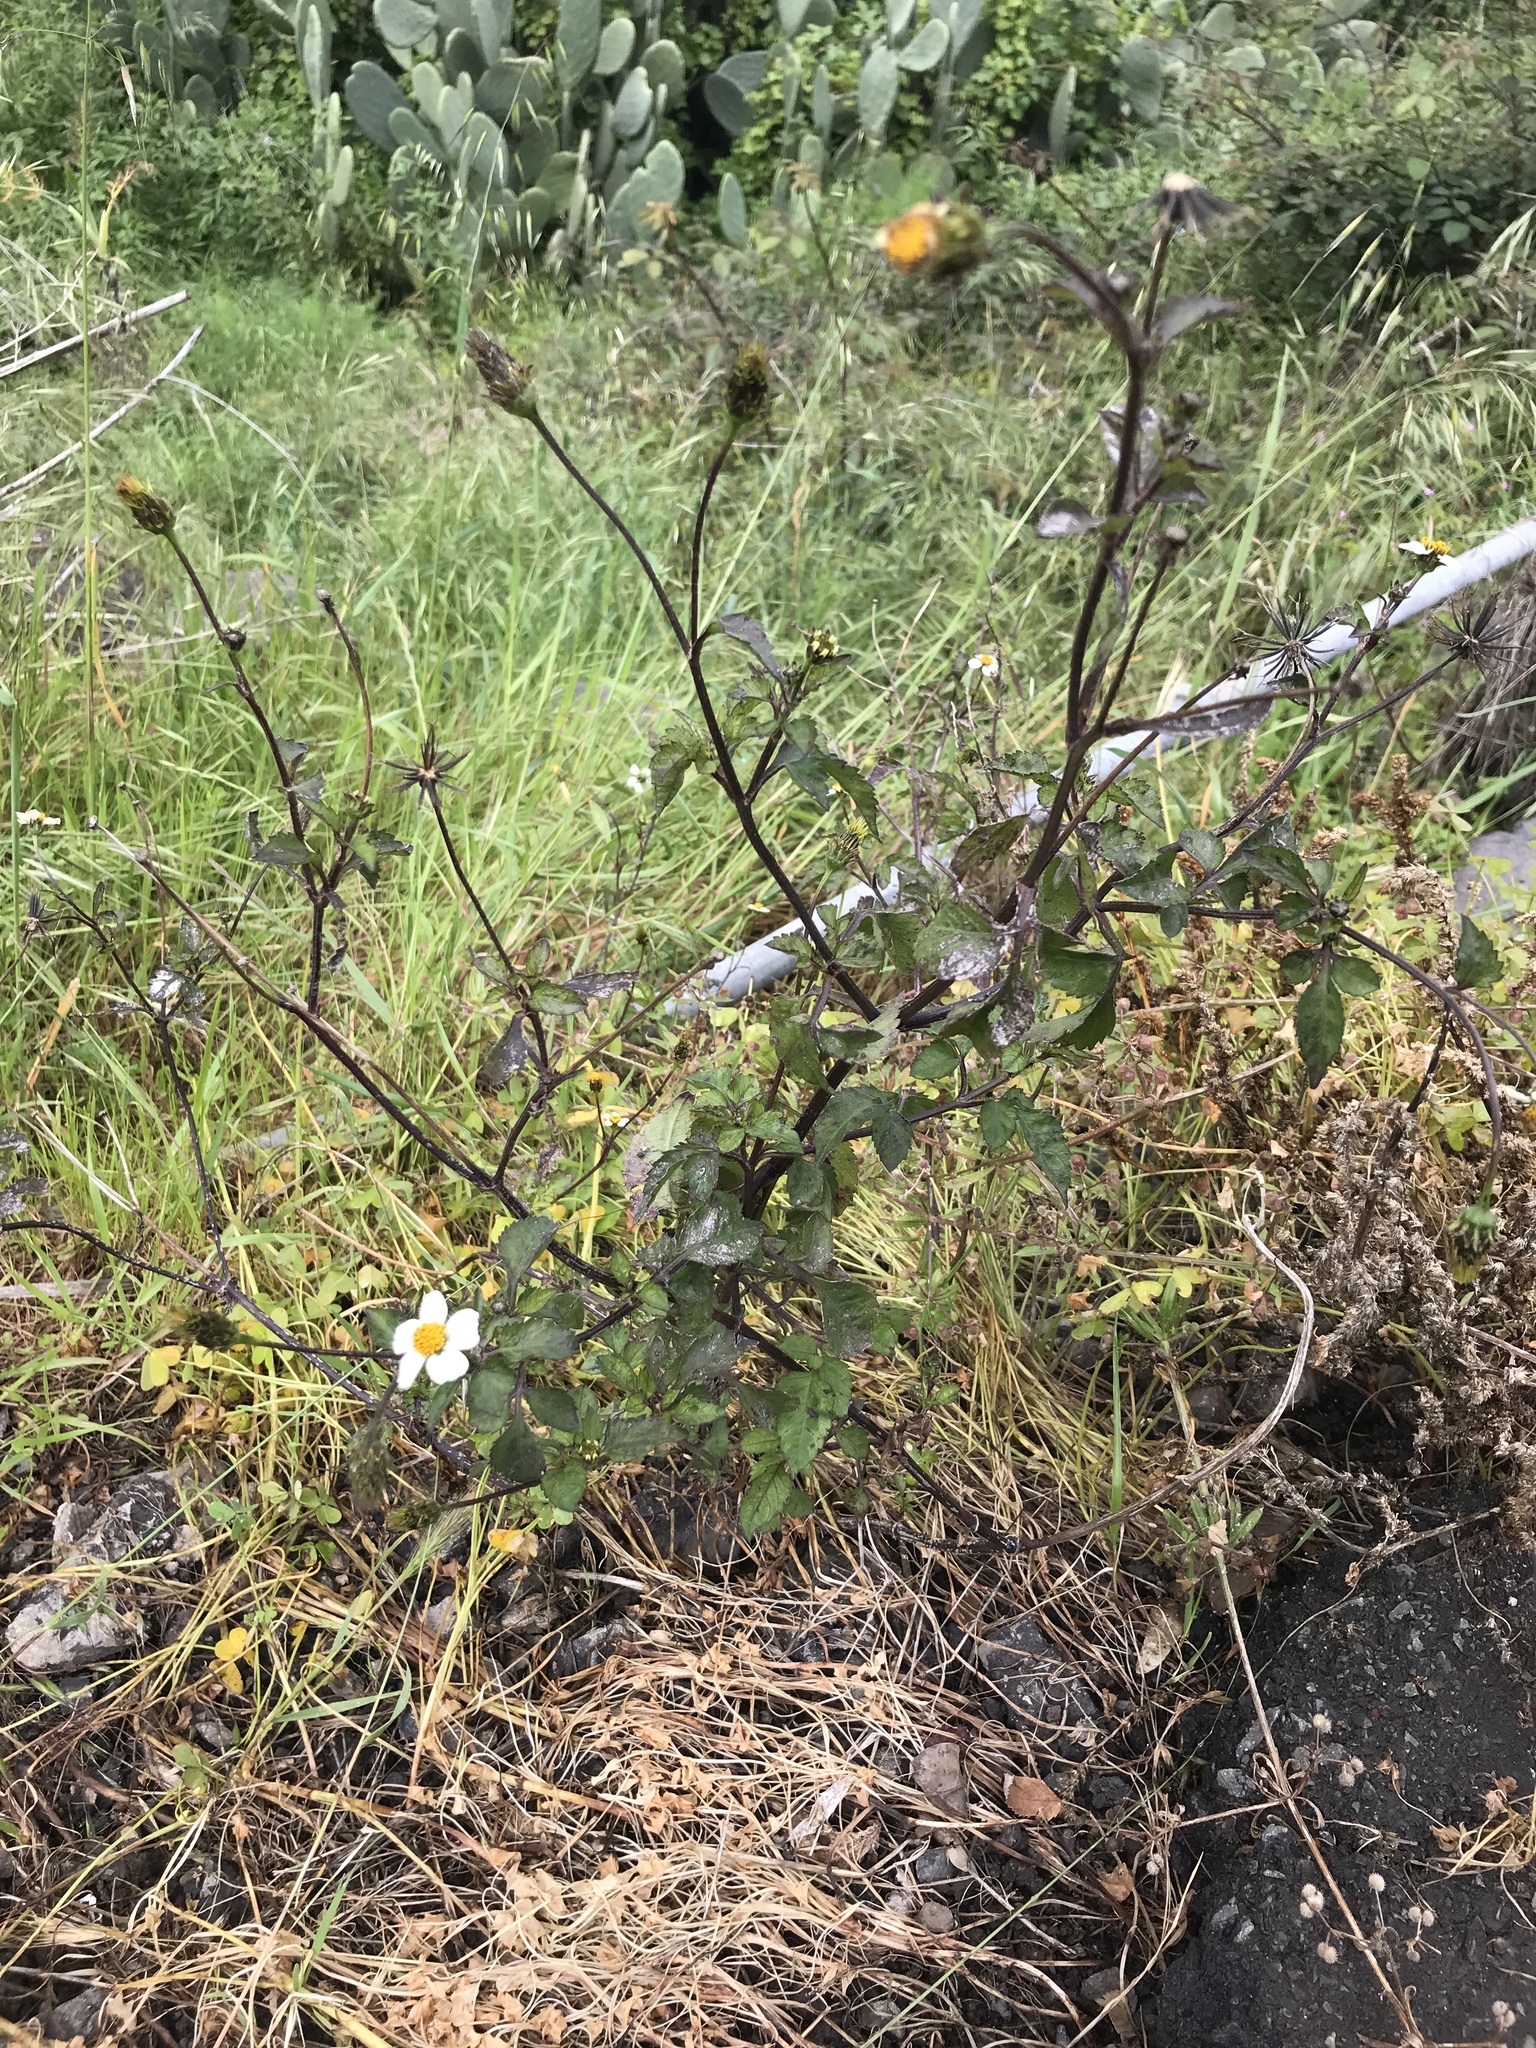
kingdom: Plantae
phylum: Tracheophyta
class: Magnoliopsida
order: Asterales
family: Asteraceae
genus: Bidens
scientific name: Bidens pilosa
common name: Black-jack
